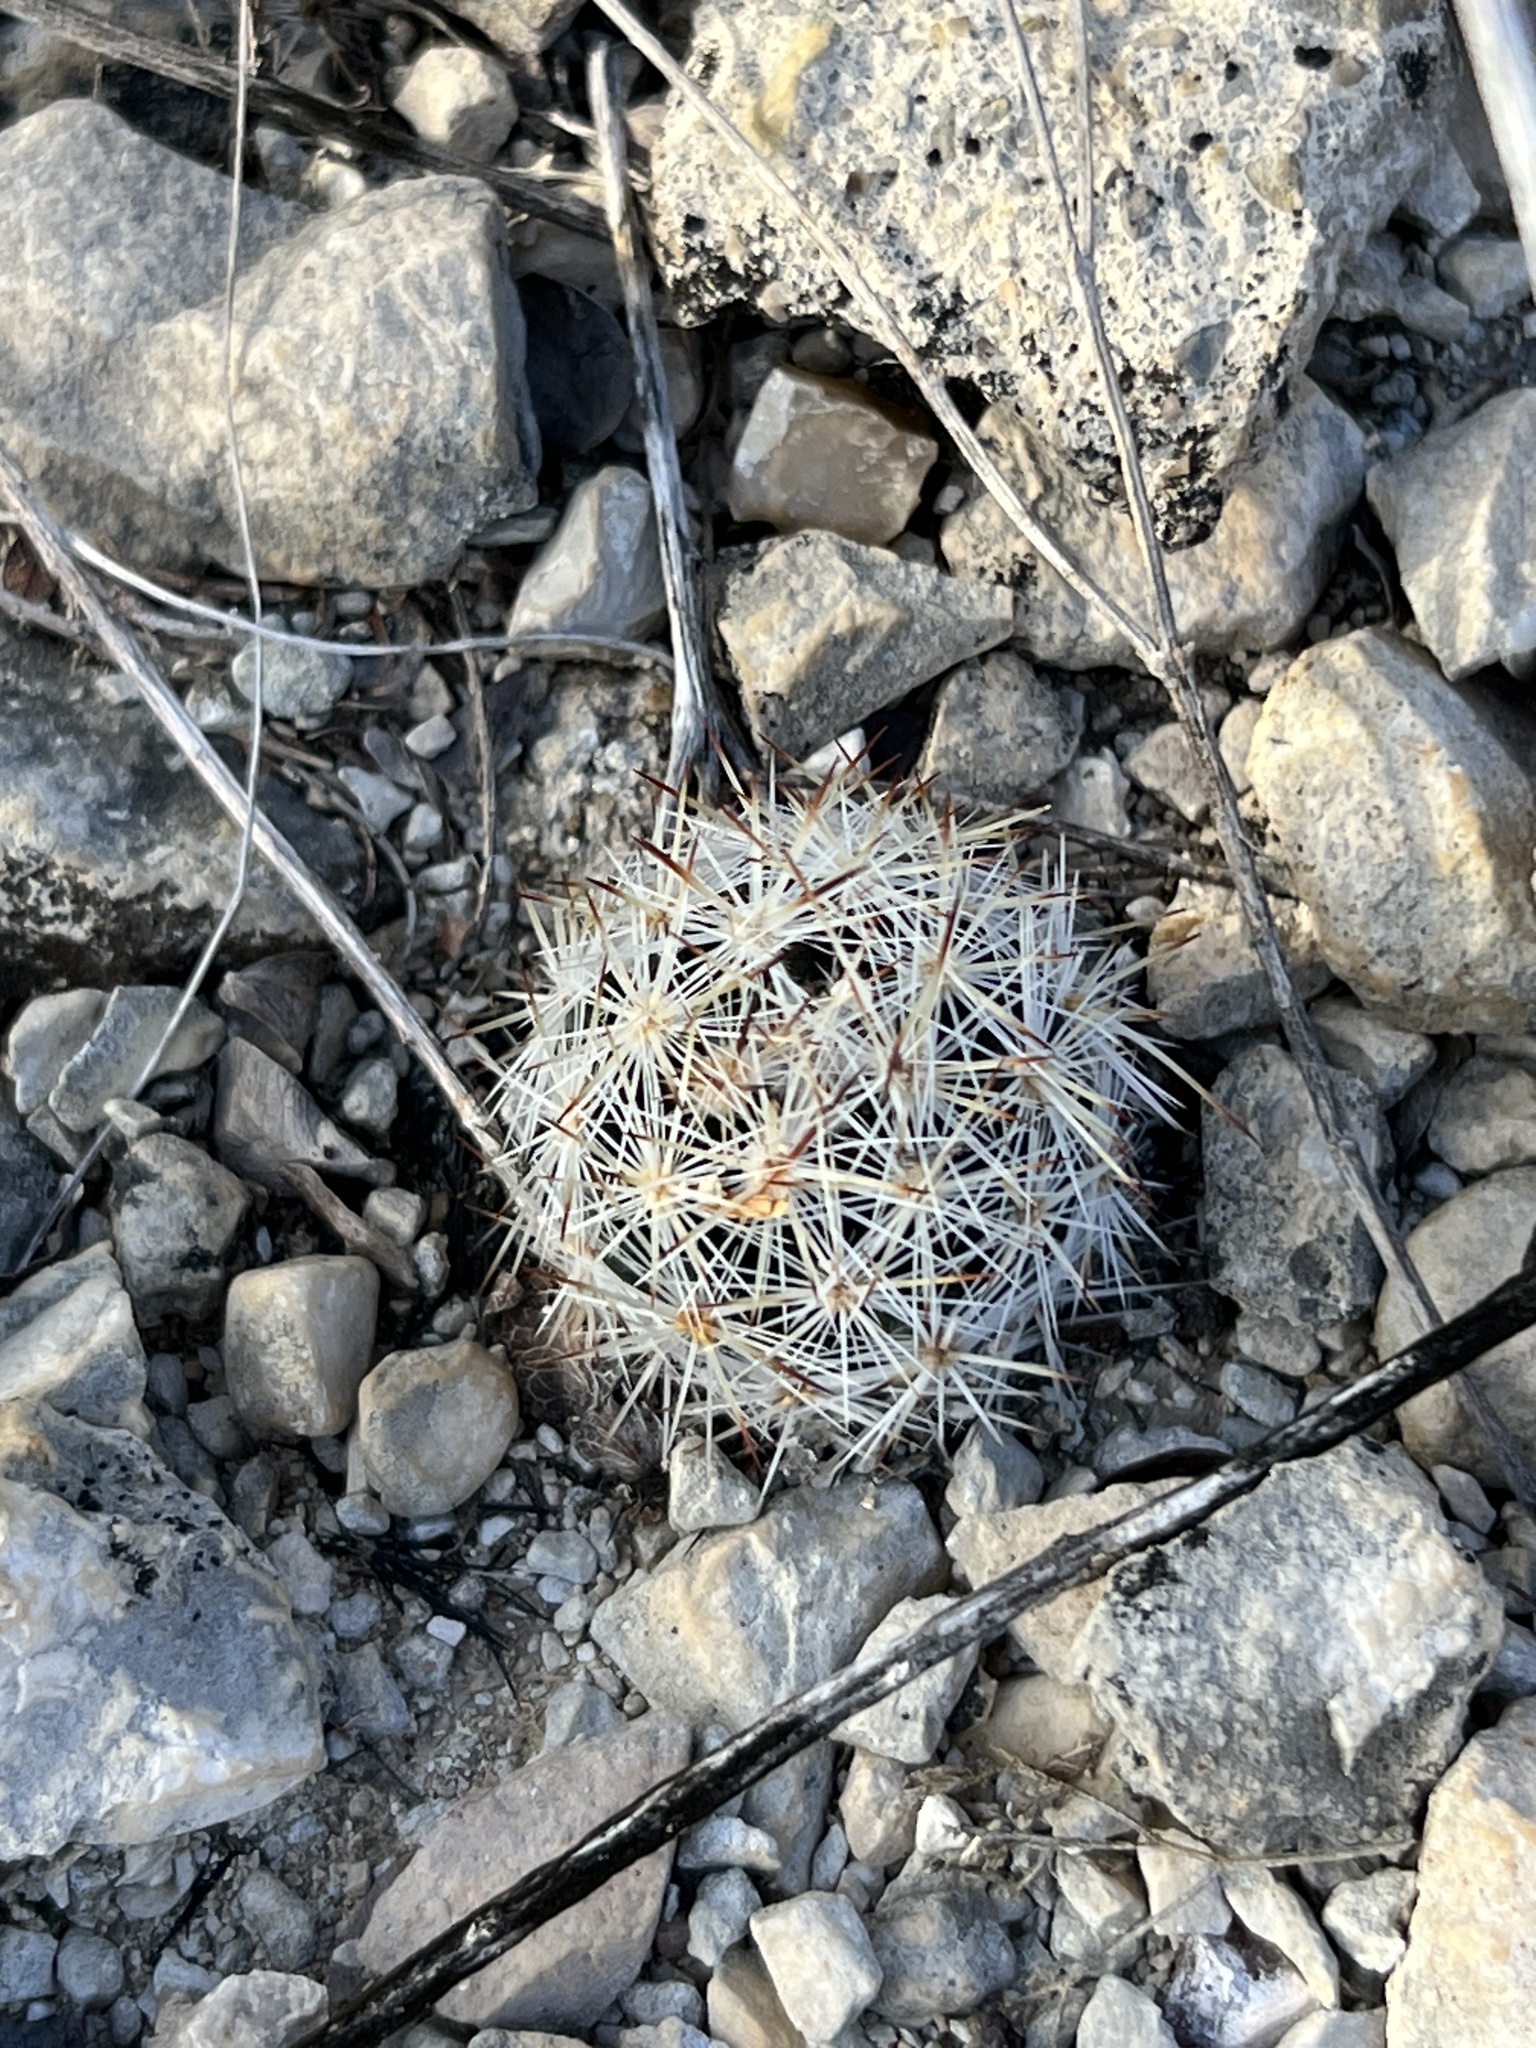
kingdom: Plantae
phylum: Tracheophyta
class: Magnoliopsida
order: Caryophyllales
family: Cactaceae
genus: Pelecyphora
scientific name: Pelecyphora emskoetteriana
